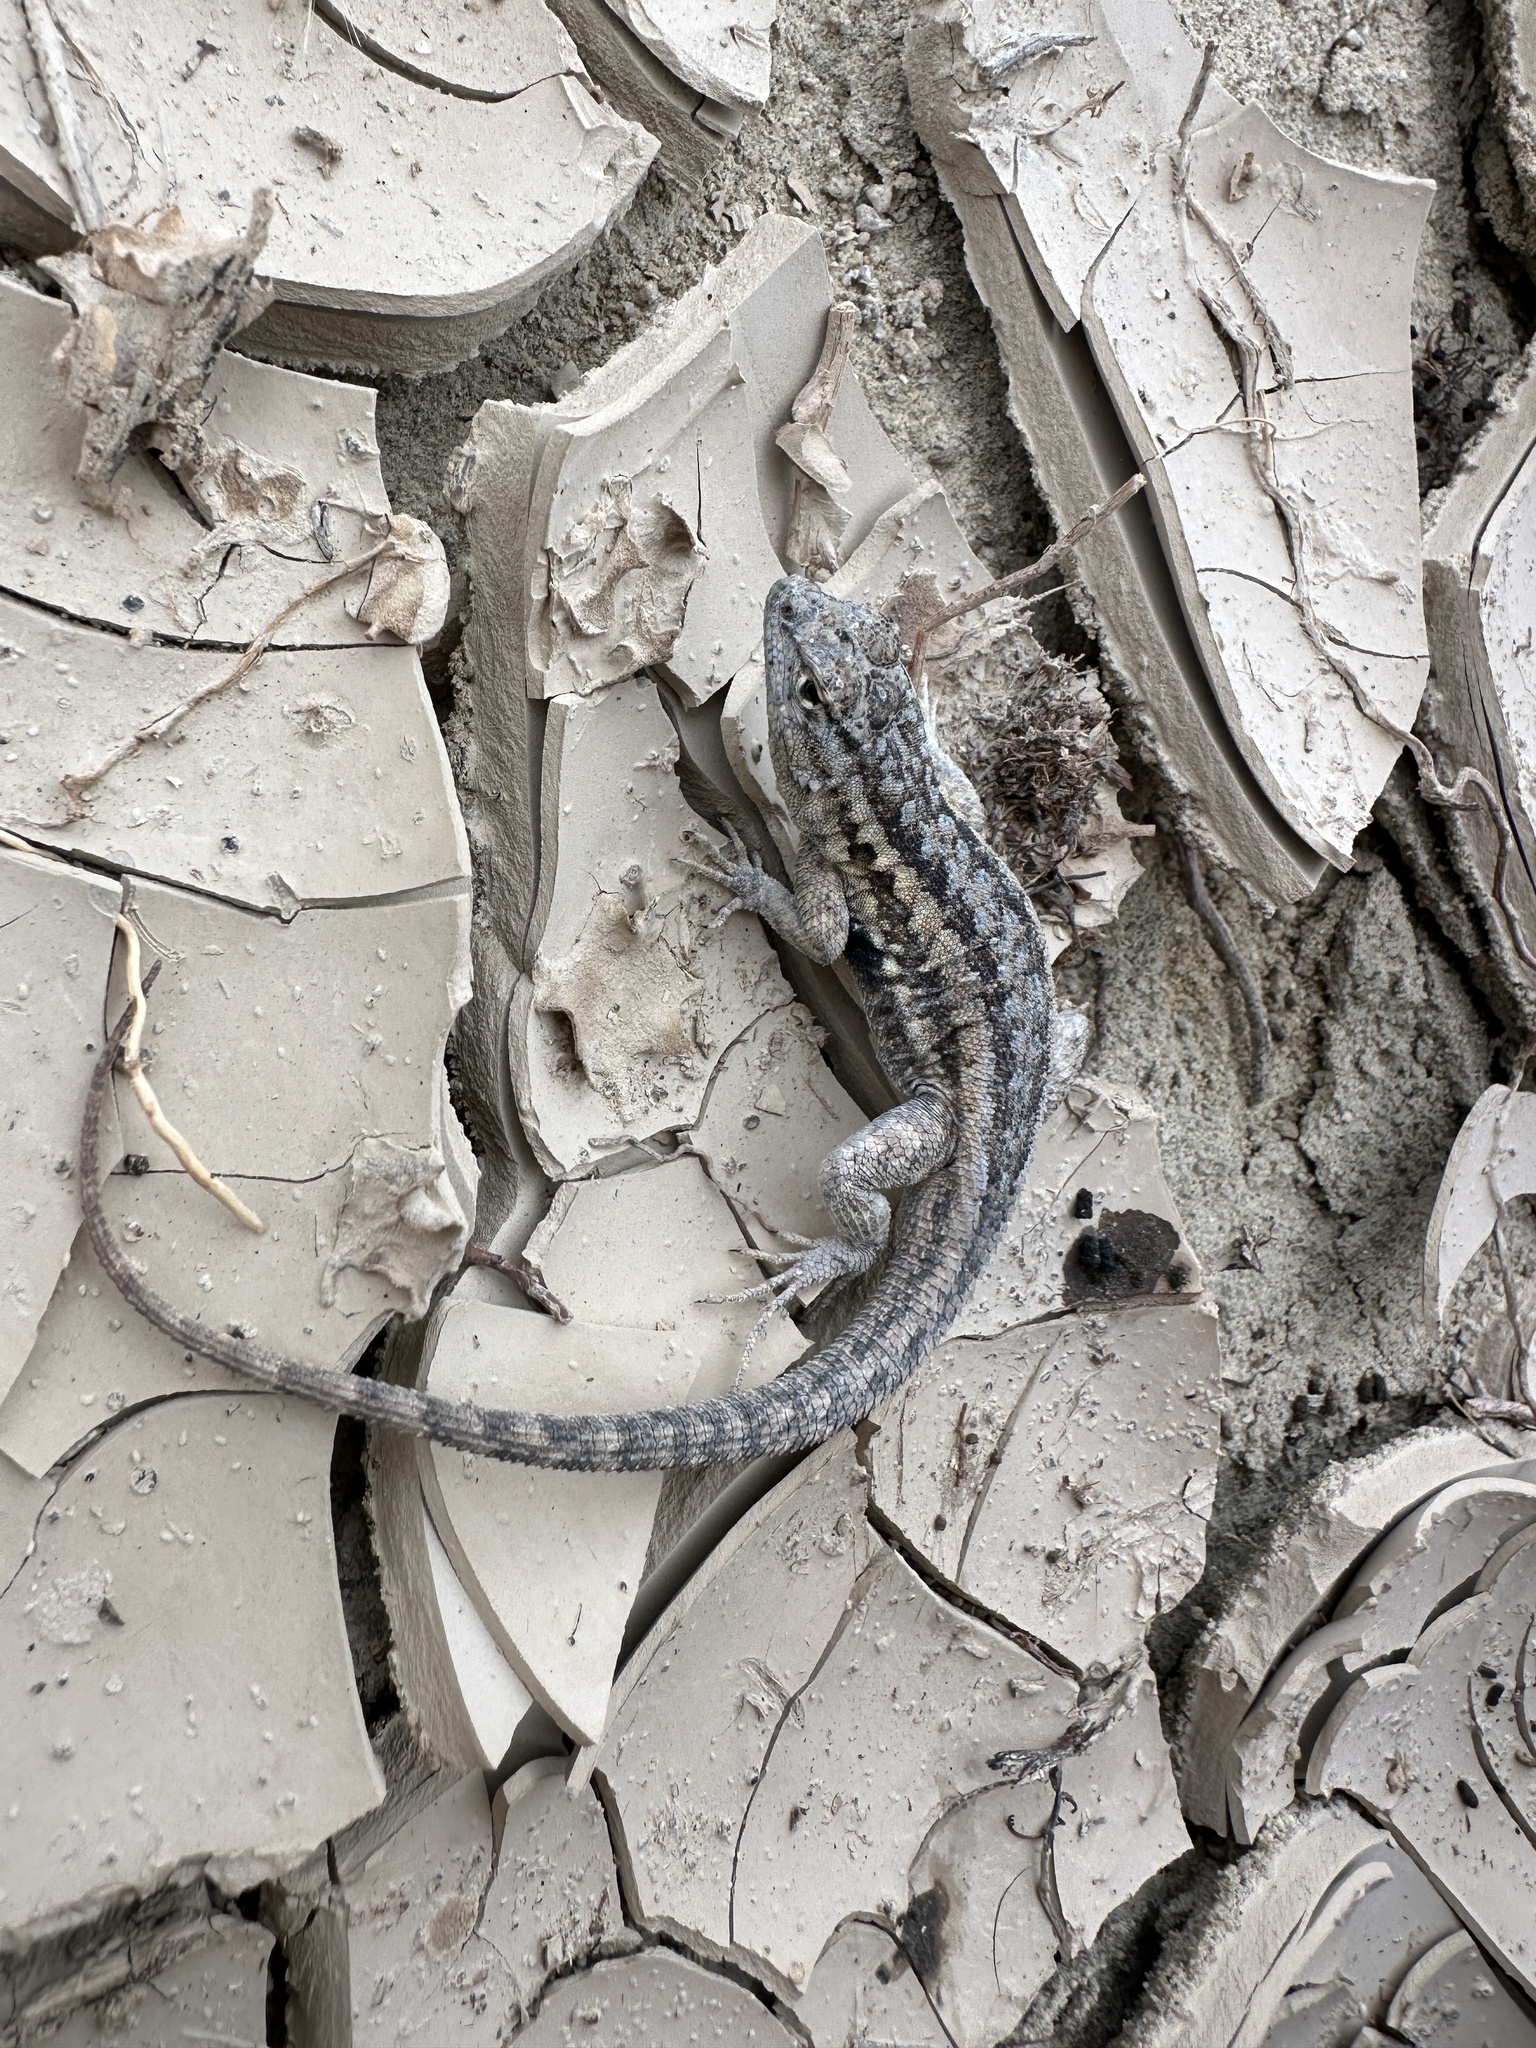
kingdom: Animalia
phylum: Chordata
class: Squamata
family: Phrynosomatidae
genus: Uta
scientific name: Uta stansburiana
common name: Side-blotched lizard
